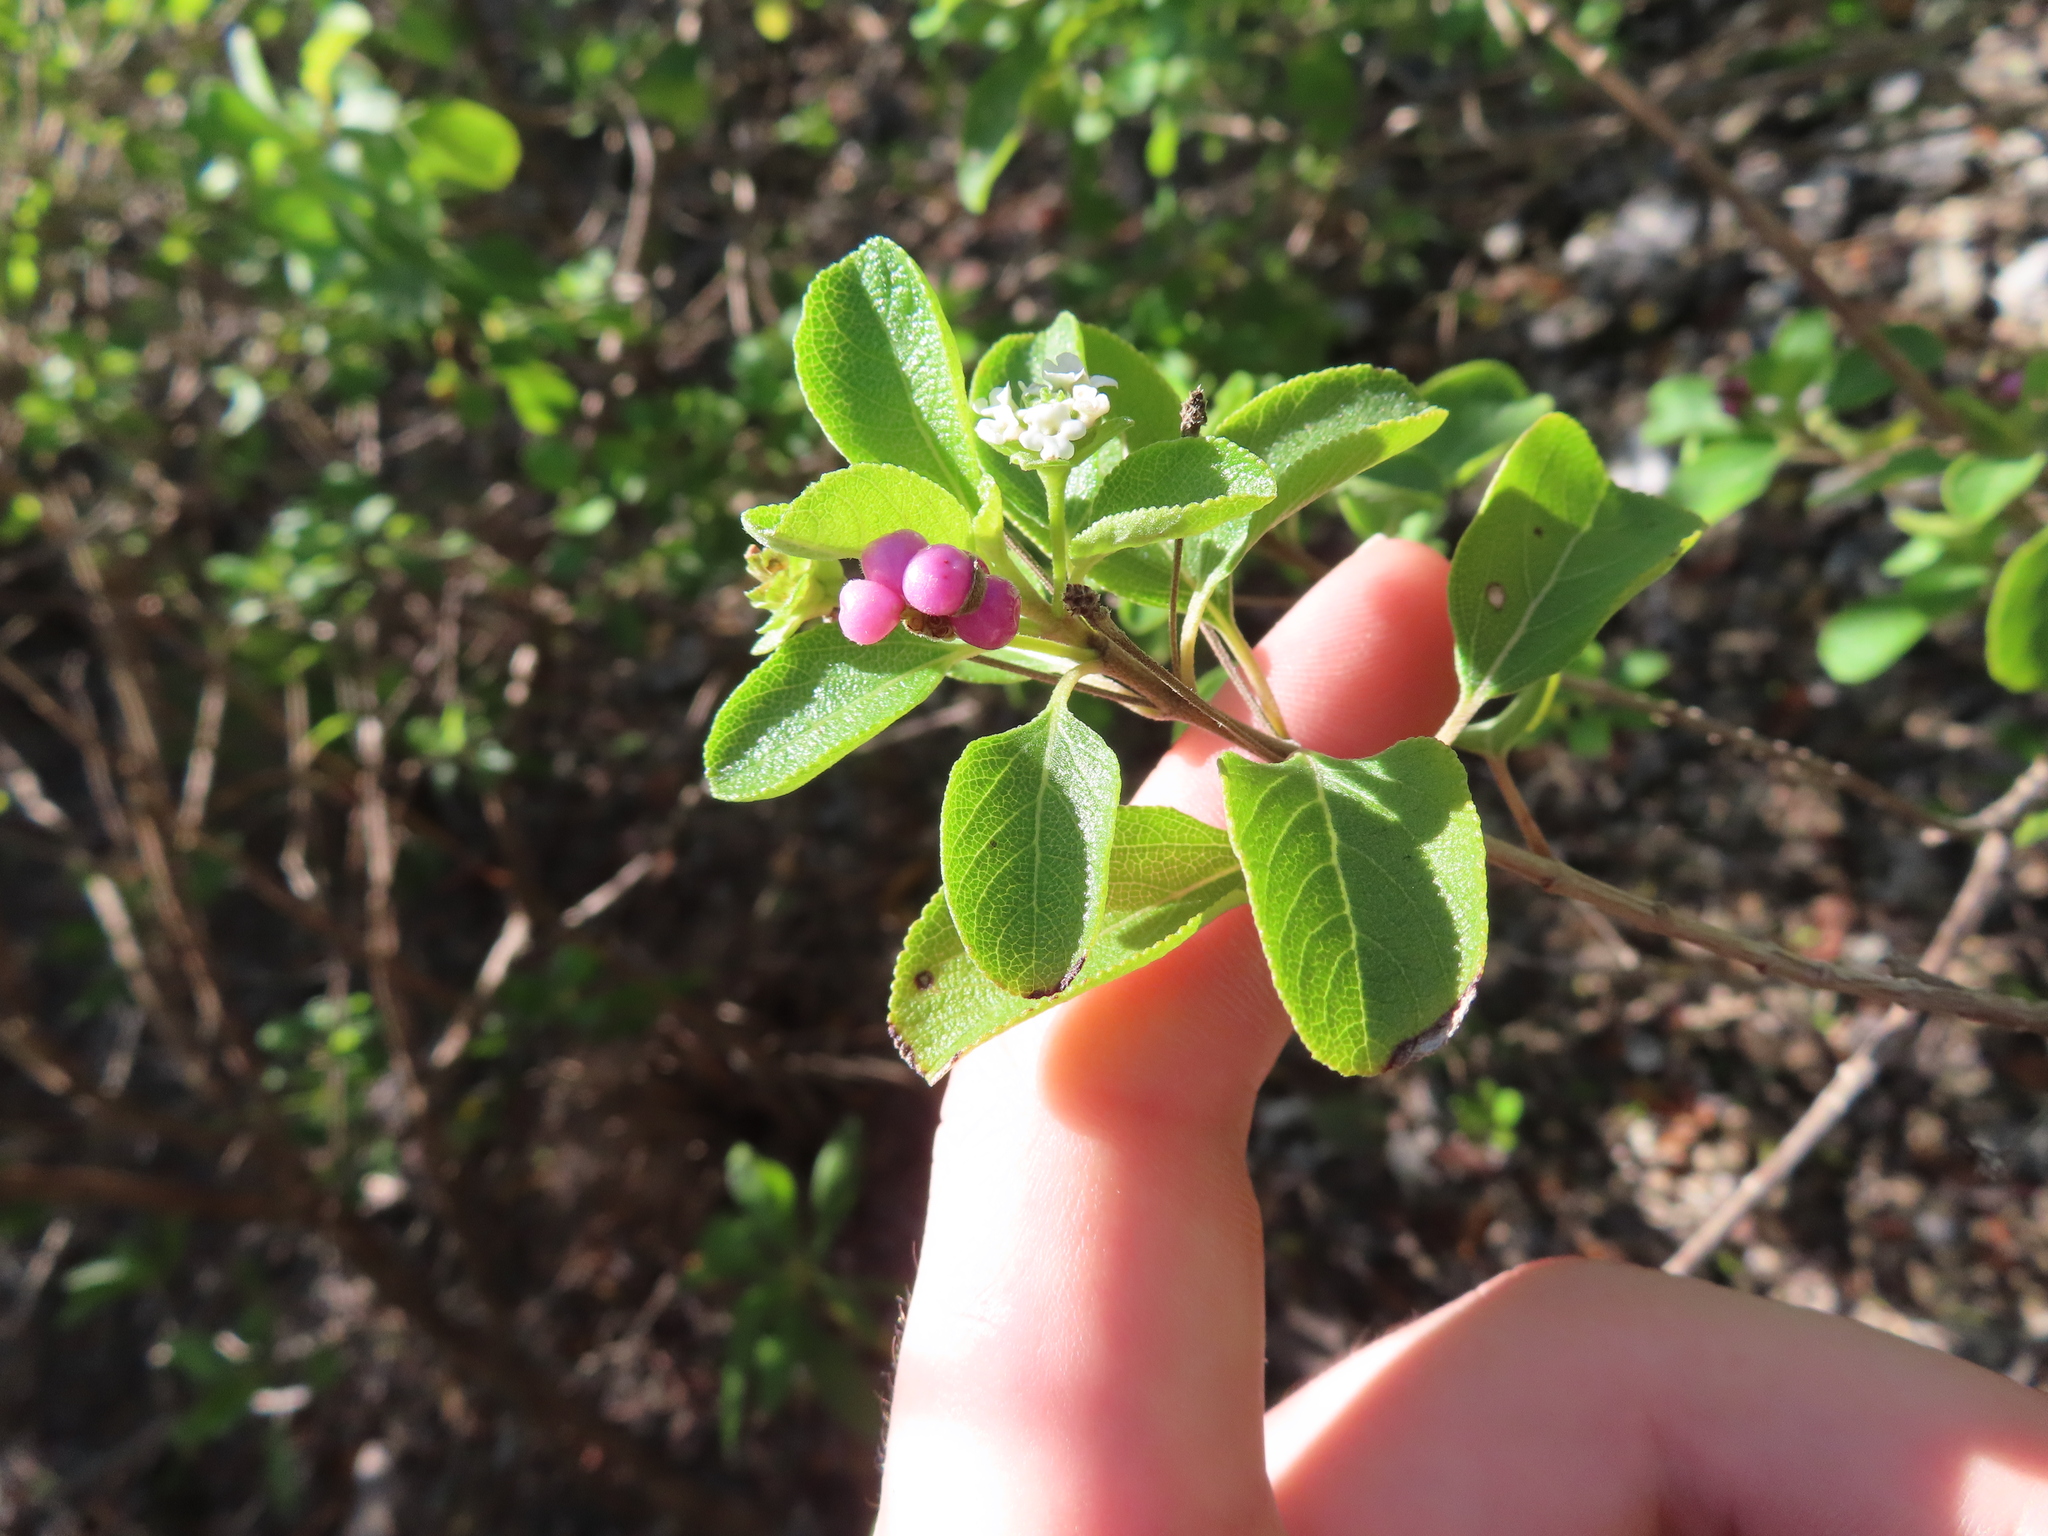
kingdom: Plantae
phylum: Tracheophyta
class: Magnoliopsida
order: Lamiales
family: Verbenaceae
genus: Lantana
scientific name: Lantana involucrata
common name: Black sage
